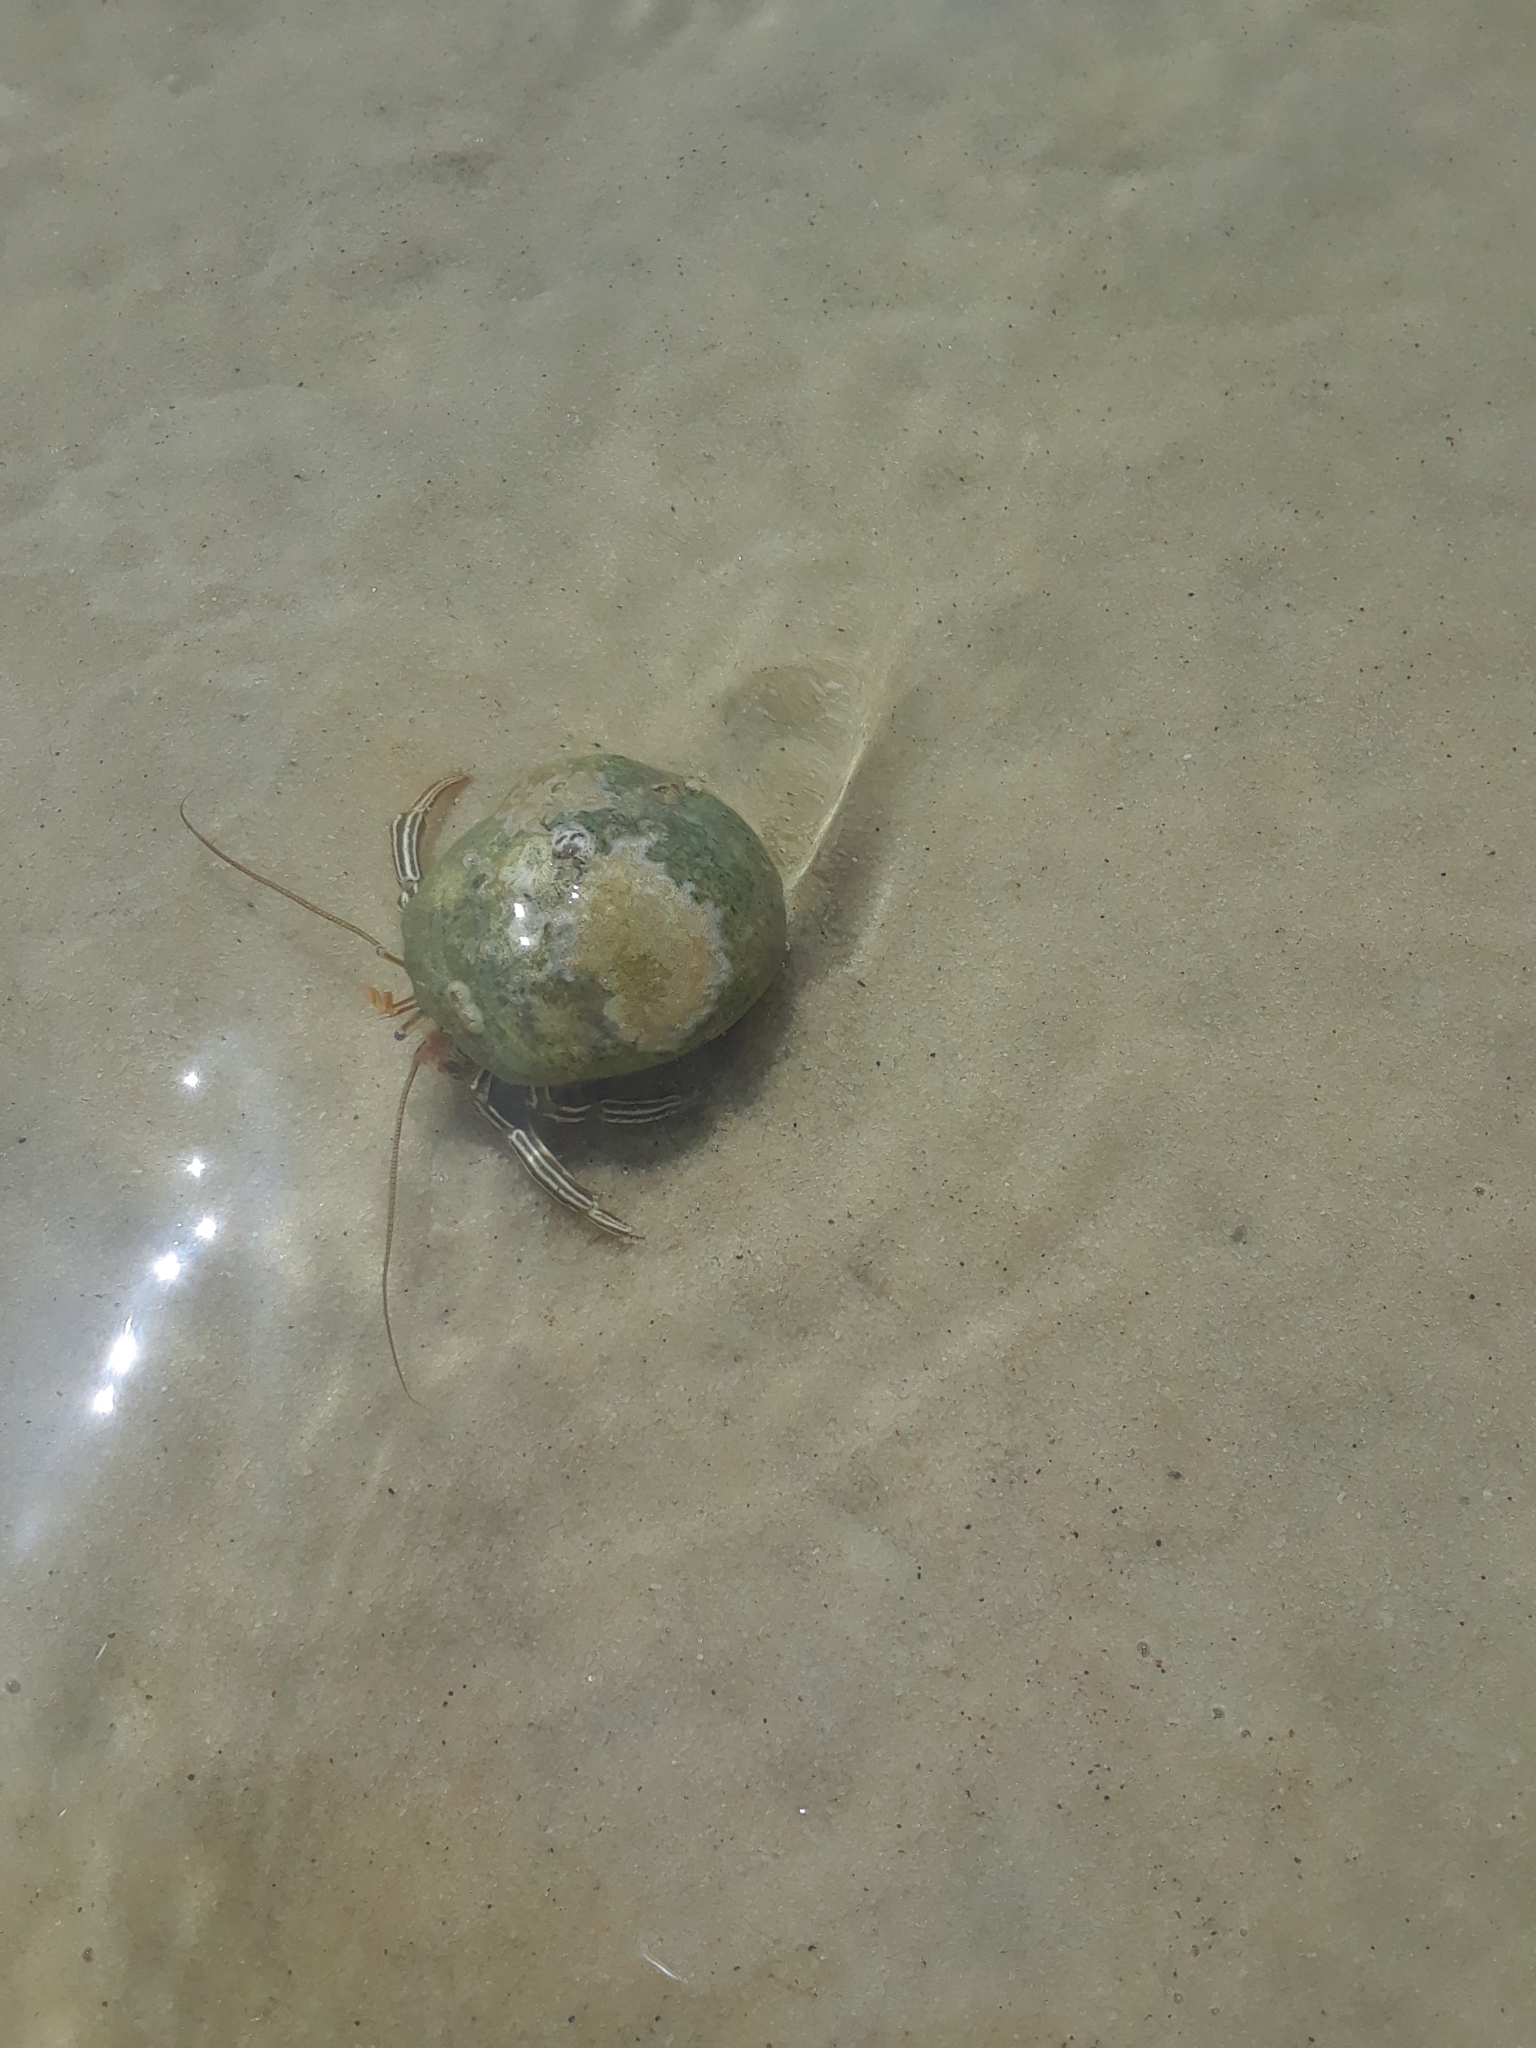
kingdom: Animalia
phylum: Arthropoda
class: Malacostraca
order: Decapoda
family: Diogenidae
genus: Clibanarius
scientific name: Clibanarius vittatus
